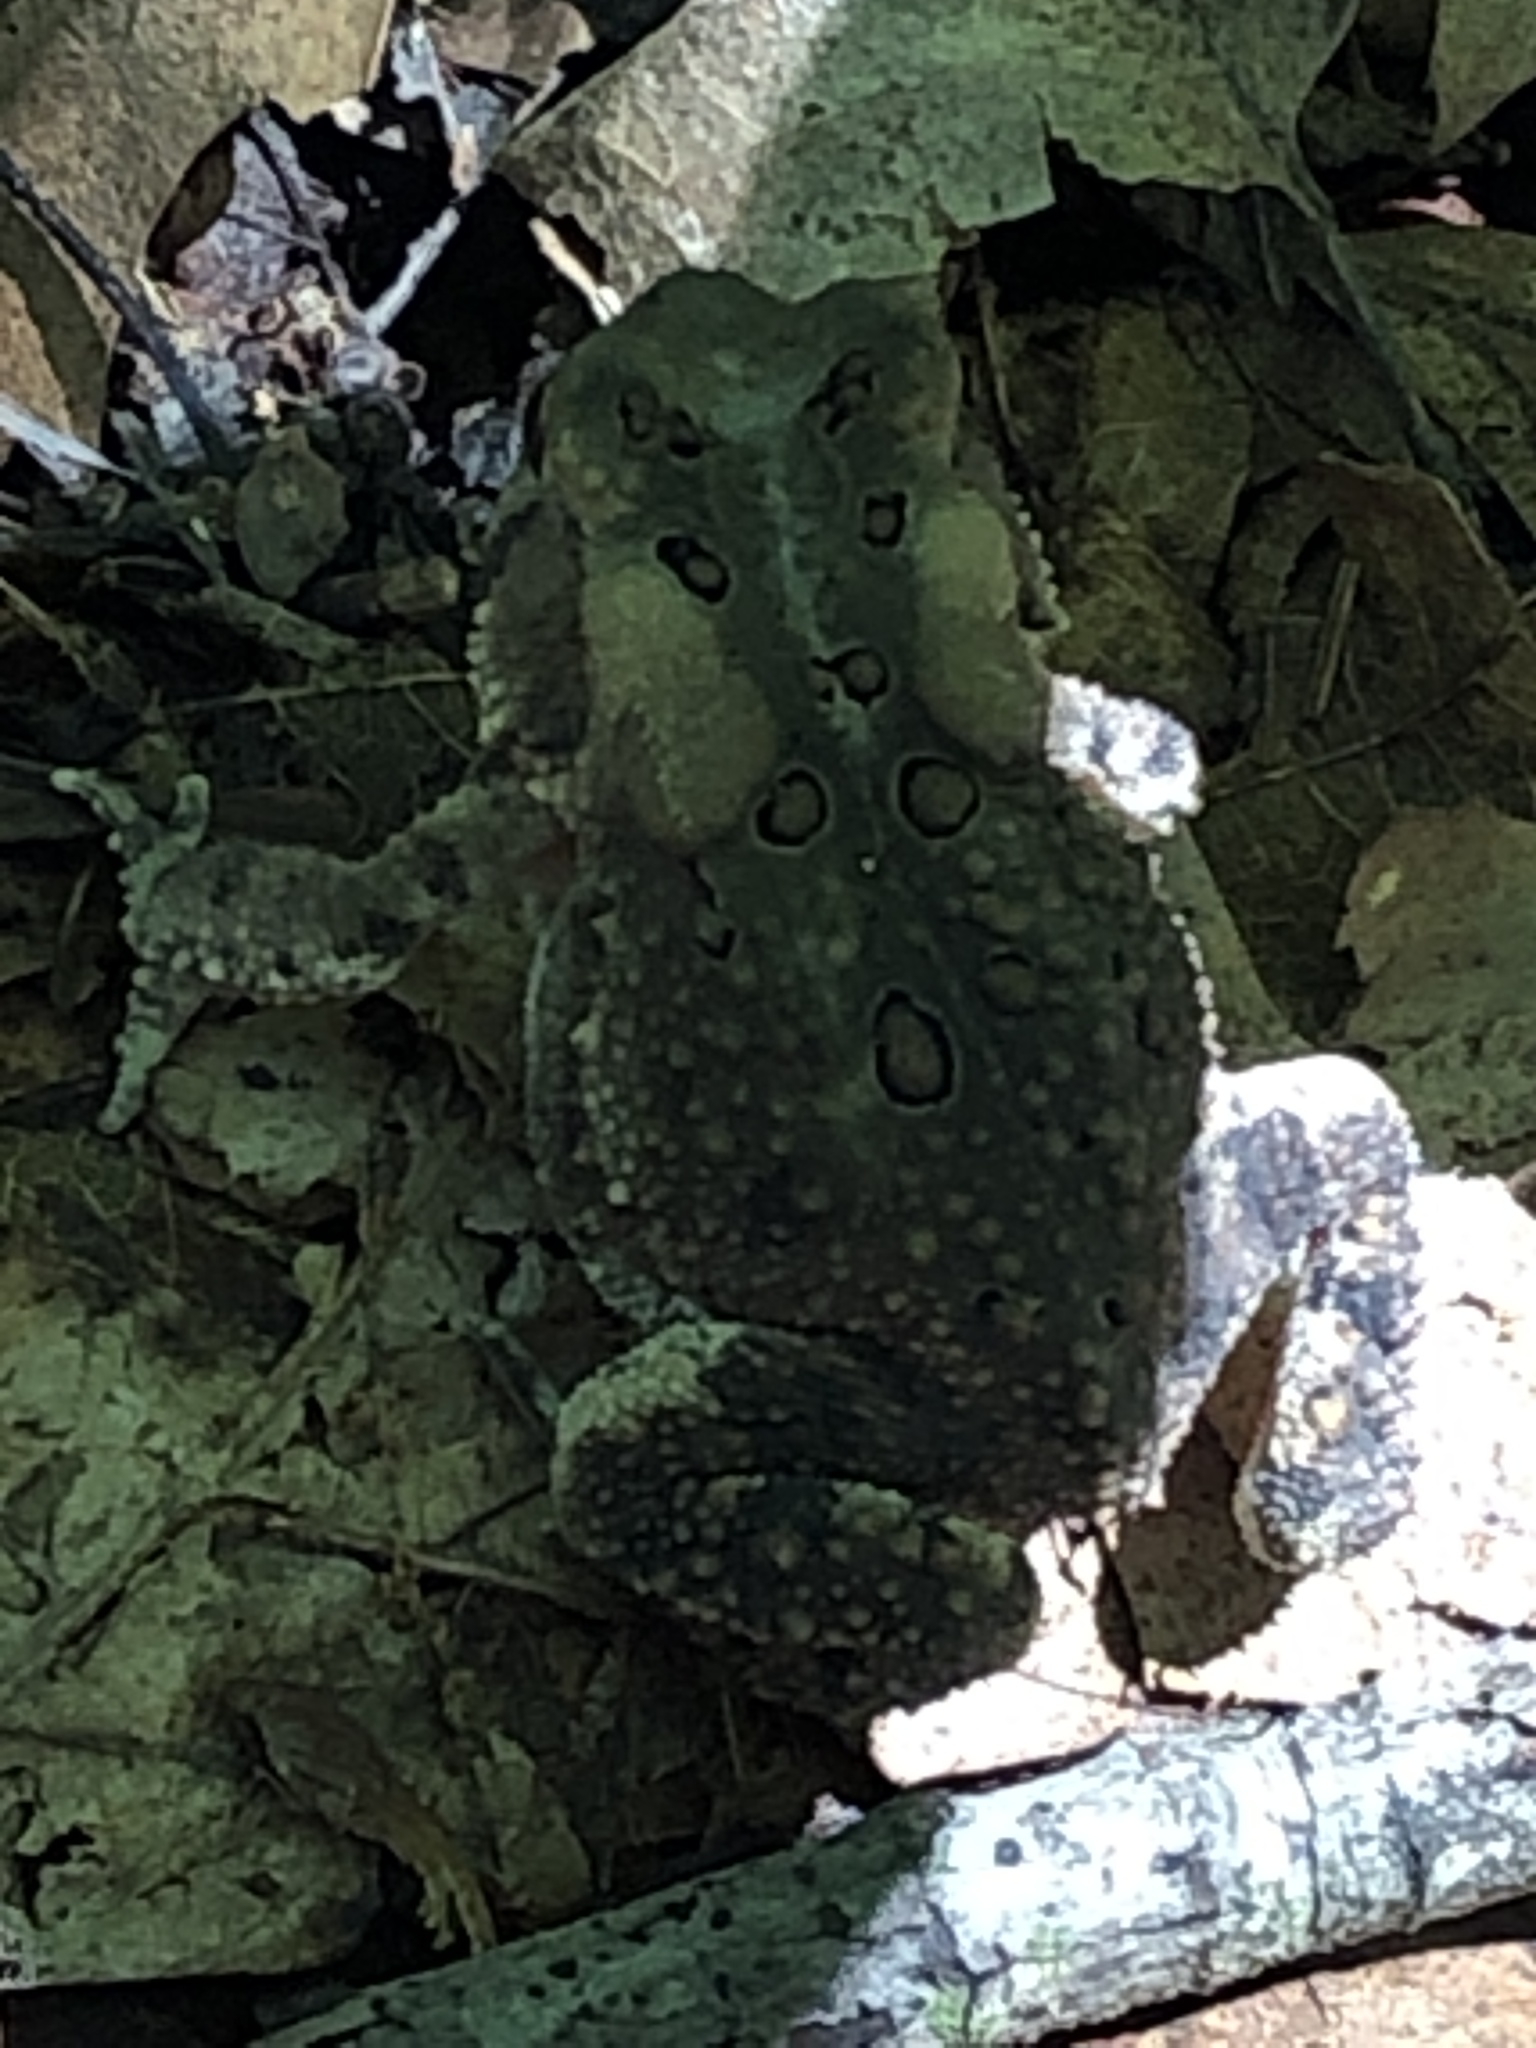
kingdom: Animalia
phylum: Chordata
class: Amphibia
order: Anura
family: Bufonidae
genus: Anaxyrus
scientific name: Anaxyrus americanus
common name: American toad
